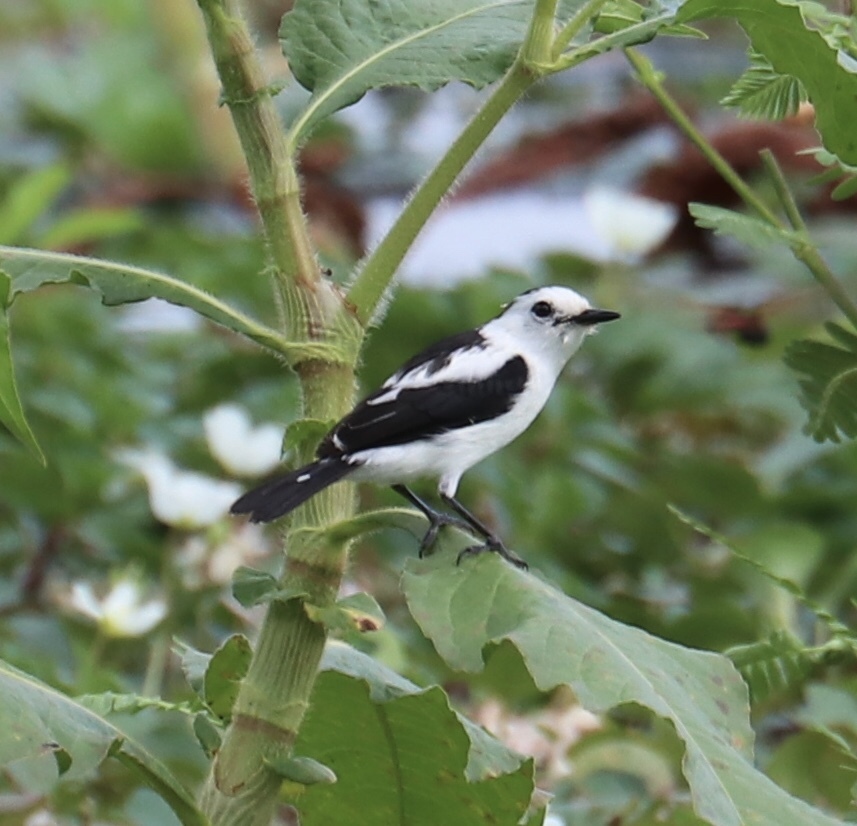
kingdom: Animalia
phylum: Chordata
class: Aves
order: Passeriformes
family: Tyrannidae
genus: Fluvicola
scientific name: Fluvicola pica
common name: Pied water-tyrant
